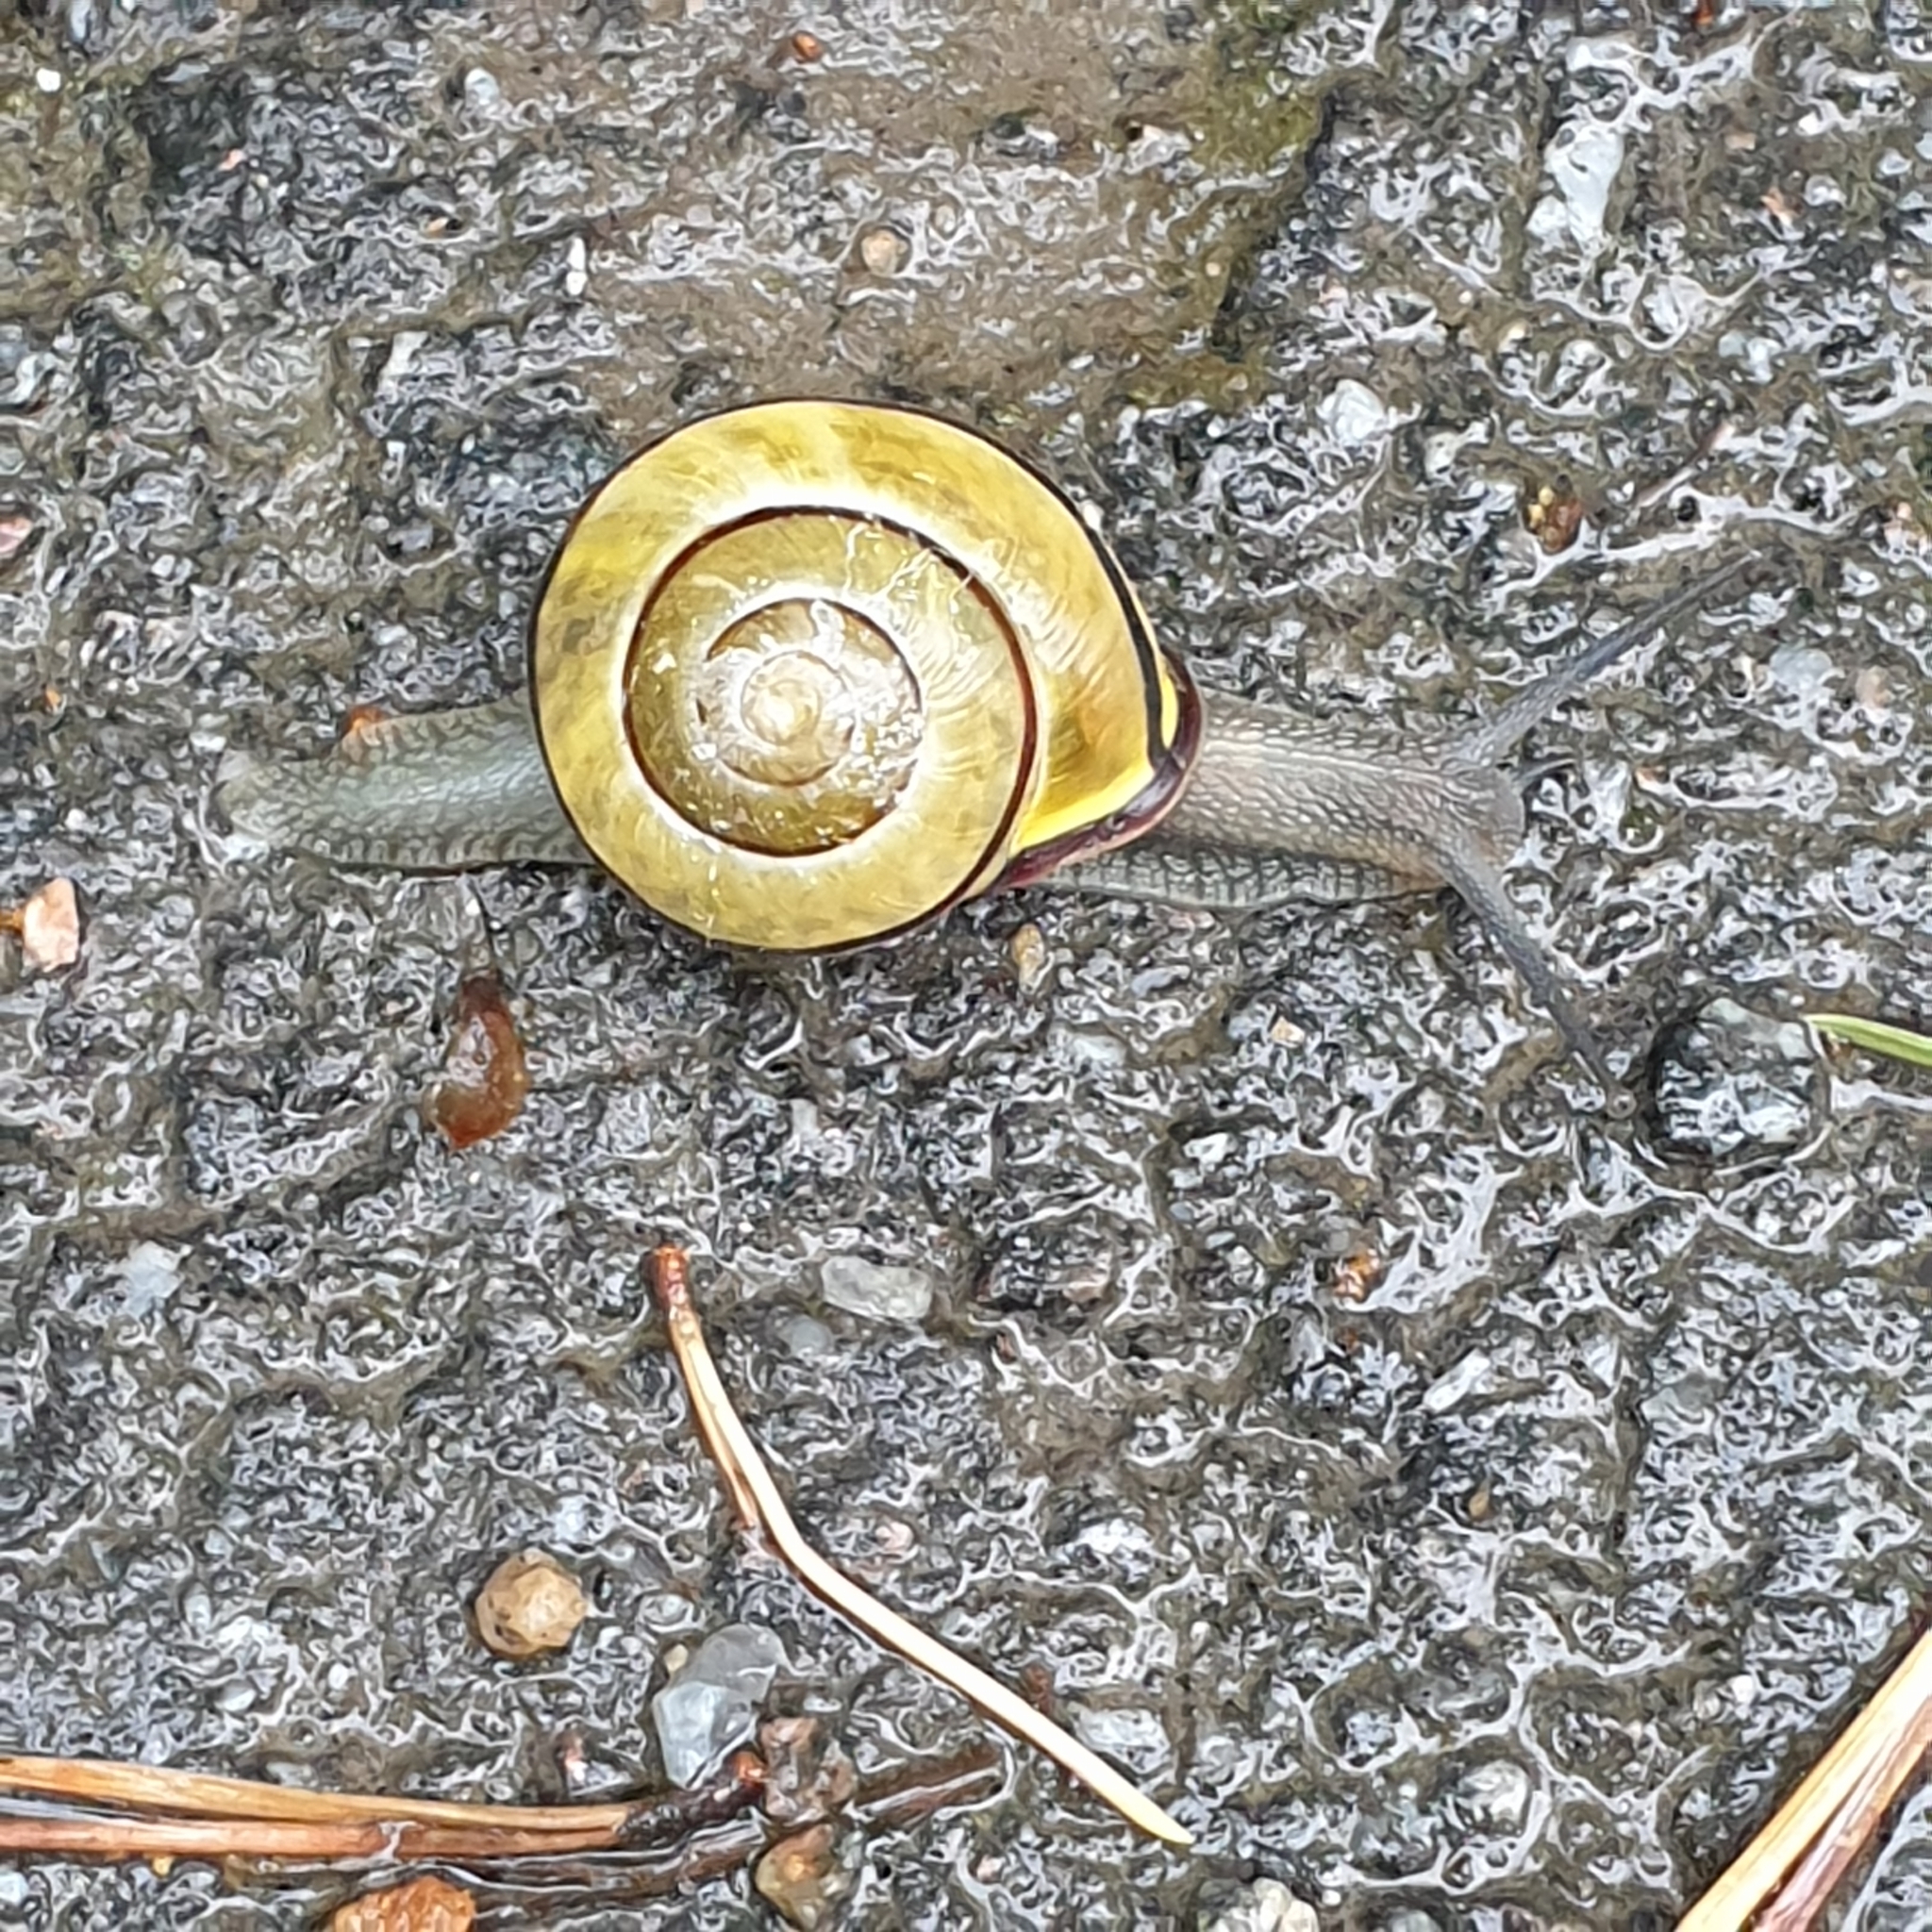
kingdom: Animalia
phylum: Mollusca
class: Gastropoda
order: Stylommatophora
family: Helicidae
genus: Cepaea
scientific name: Cepaea nemoralis
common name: Grovesnail
